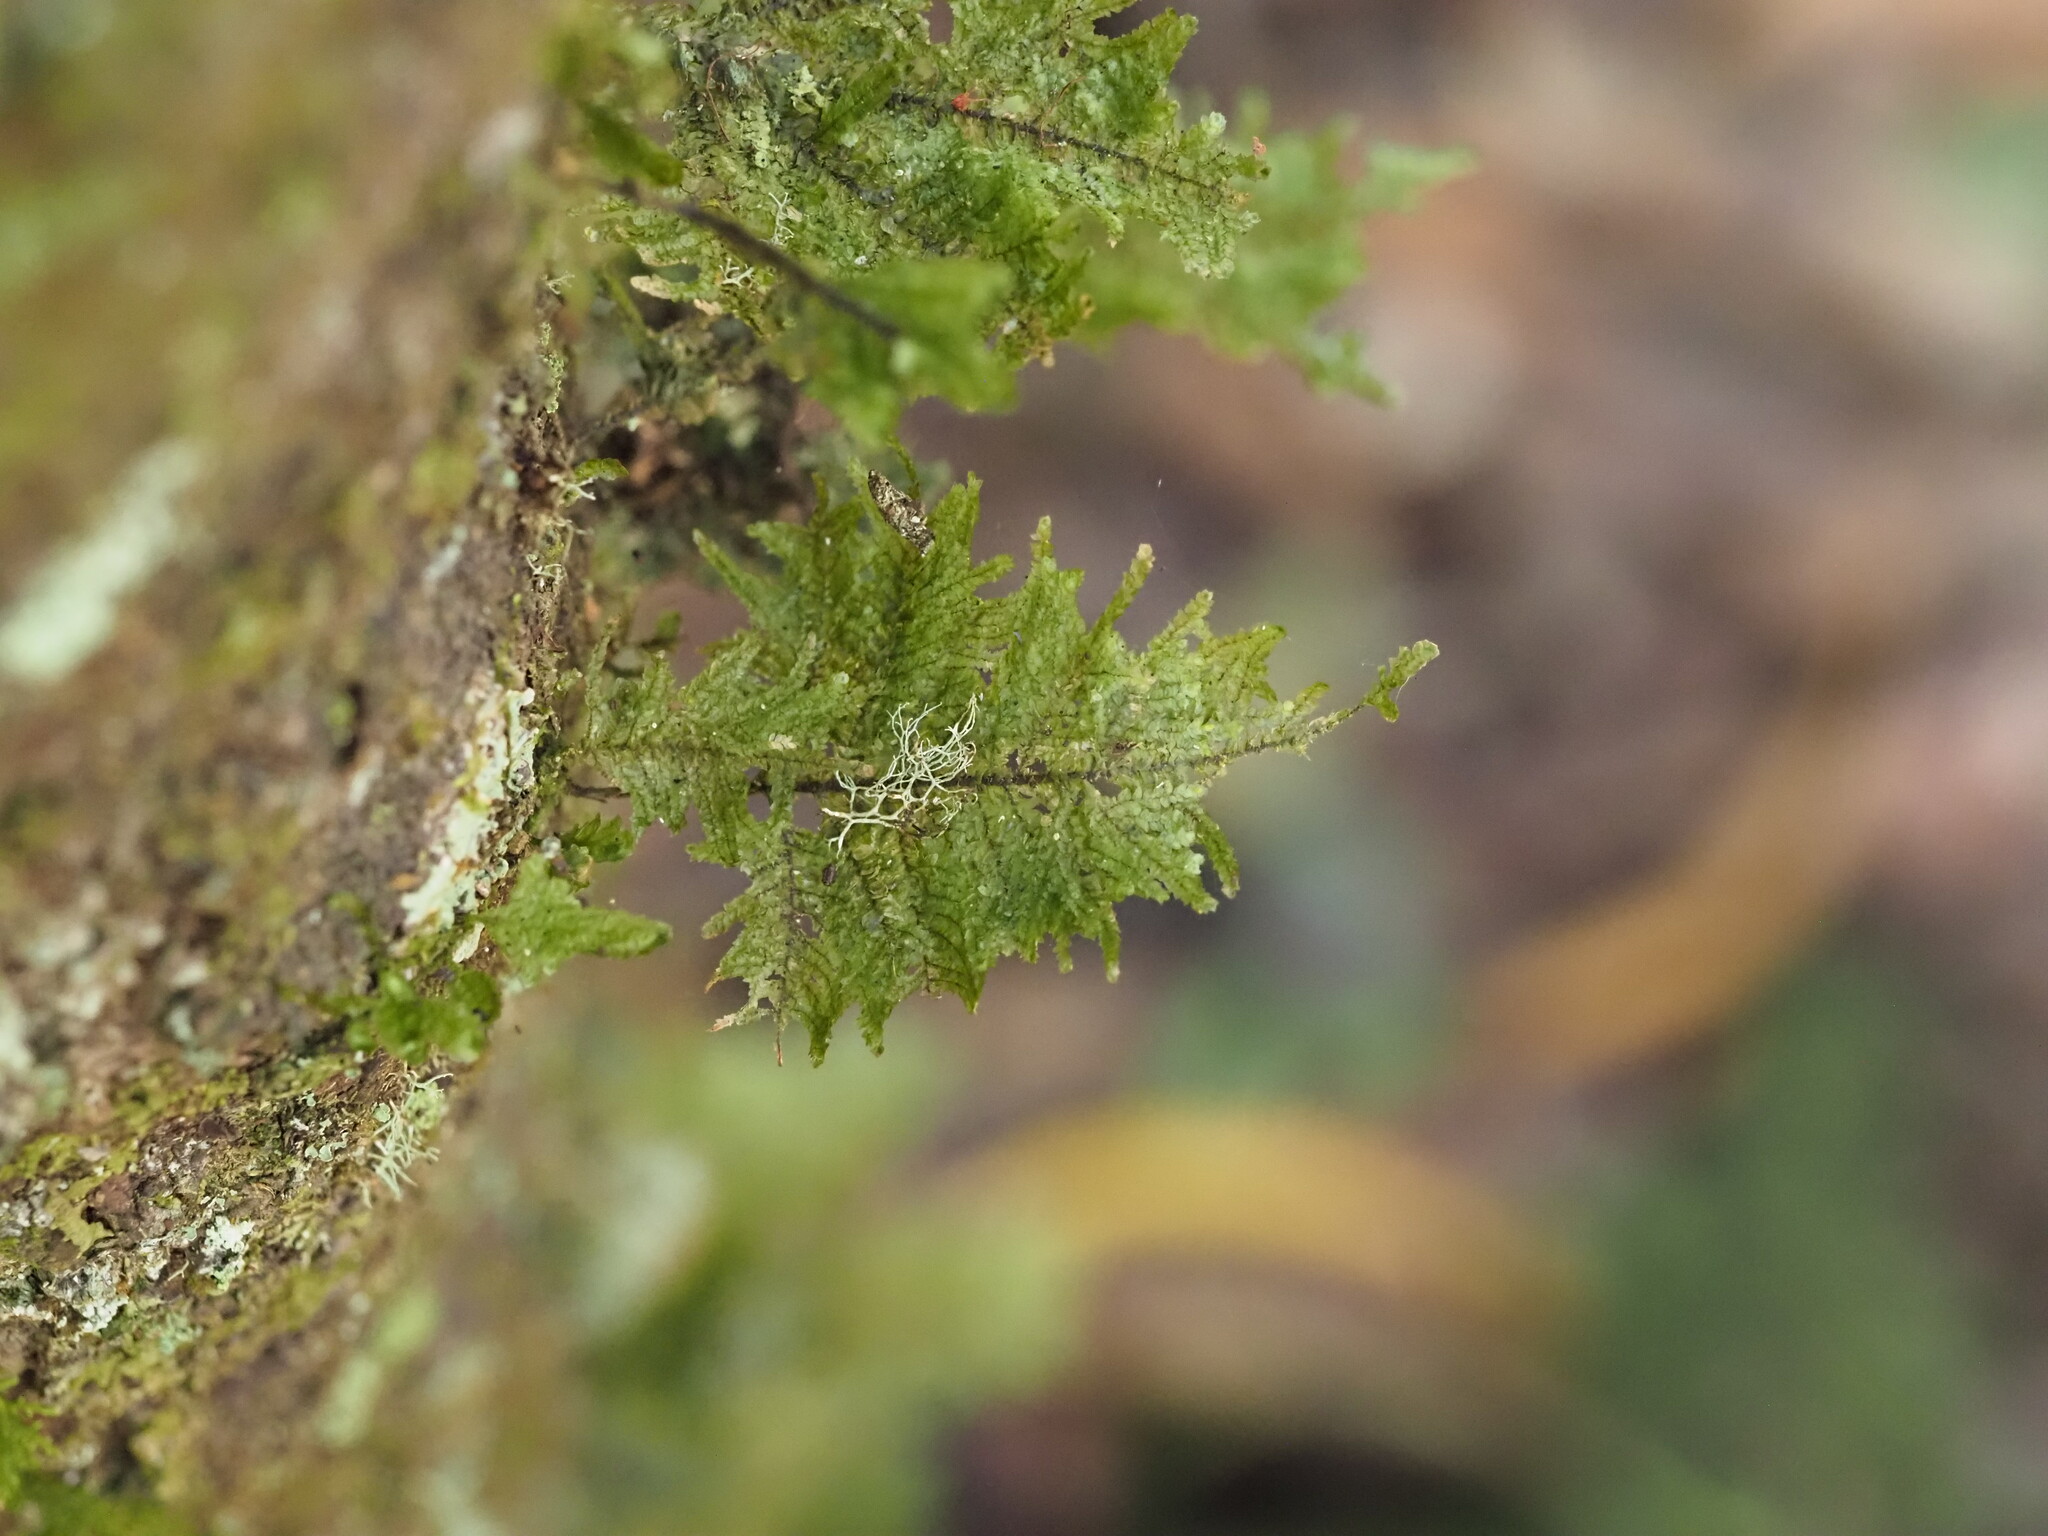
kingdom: Plantae
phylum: Bryophyta
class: Bryopsida
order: Hypnales
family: Neckeraceae
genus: Homaliodendron
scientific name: Homaliodendron flabellatum
